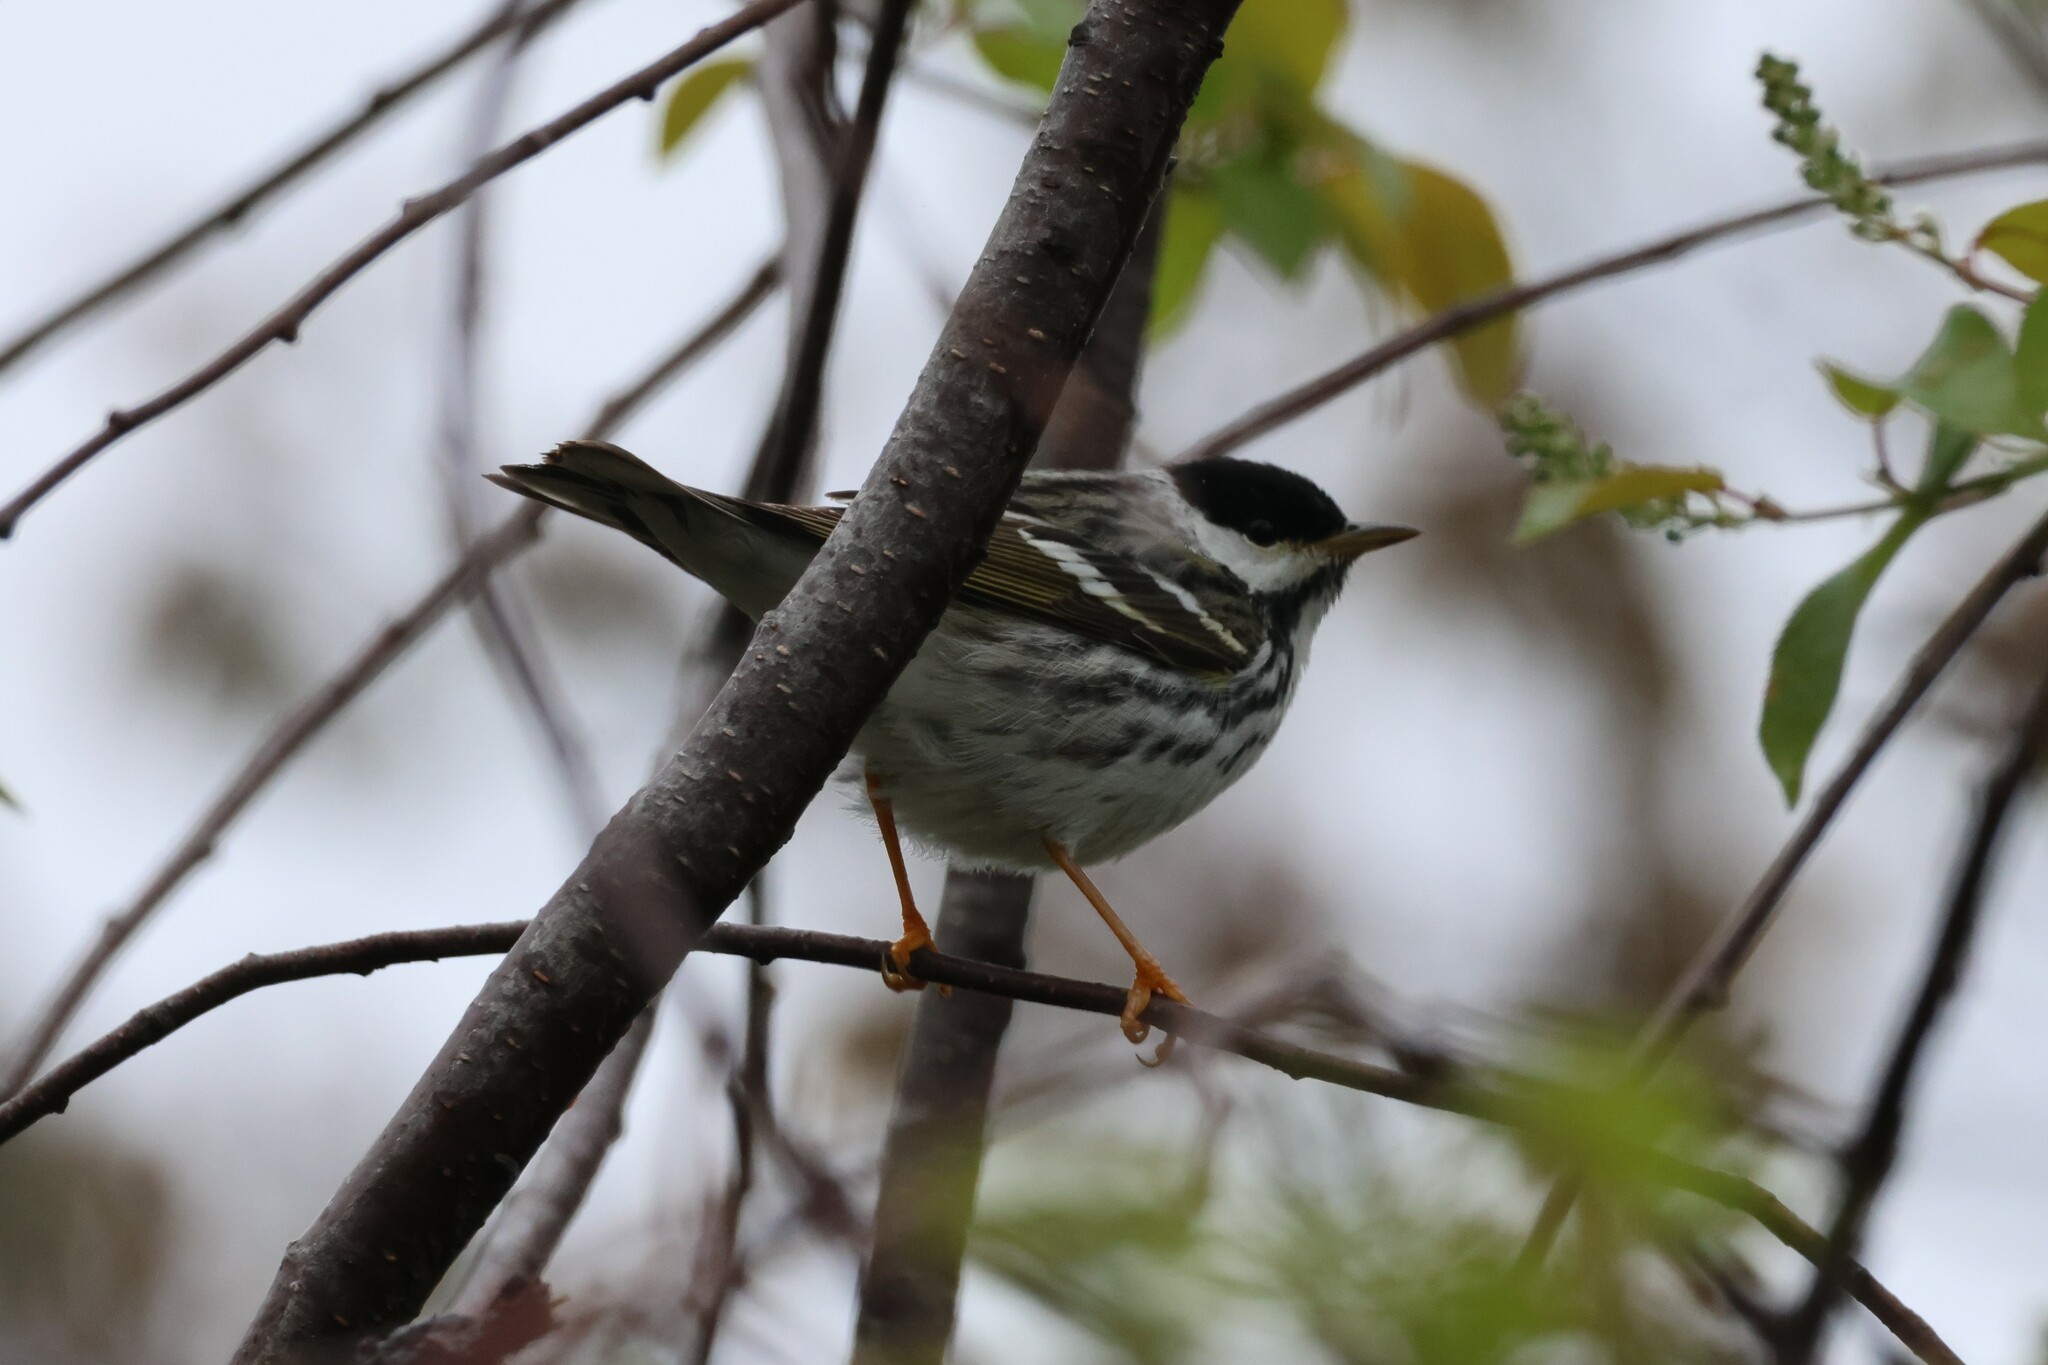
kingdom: Animalia
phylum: Chordata
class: Aves
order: Passeriformes
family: Parulidae
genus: Setophaga
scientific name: Setophaga striata
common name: Blackpoll warbler
